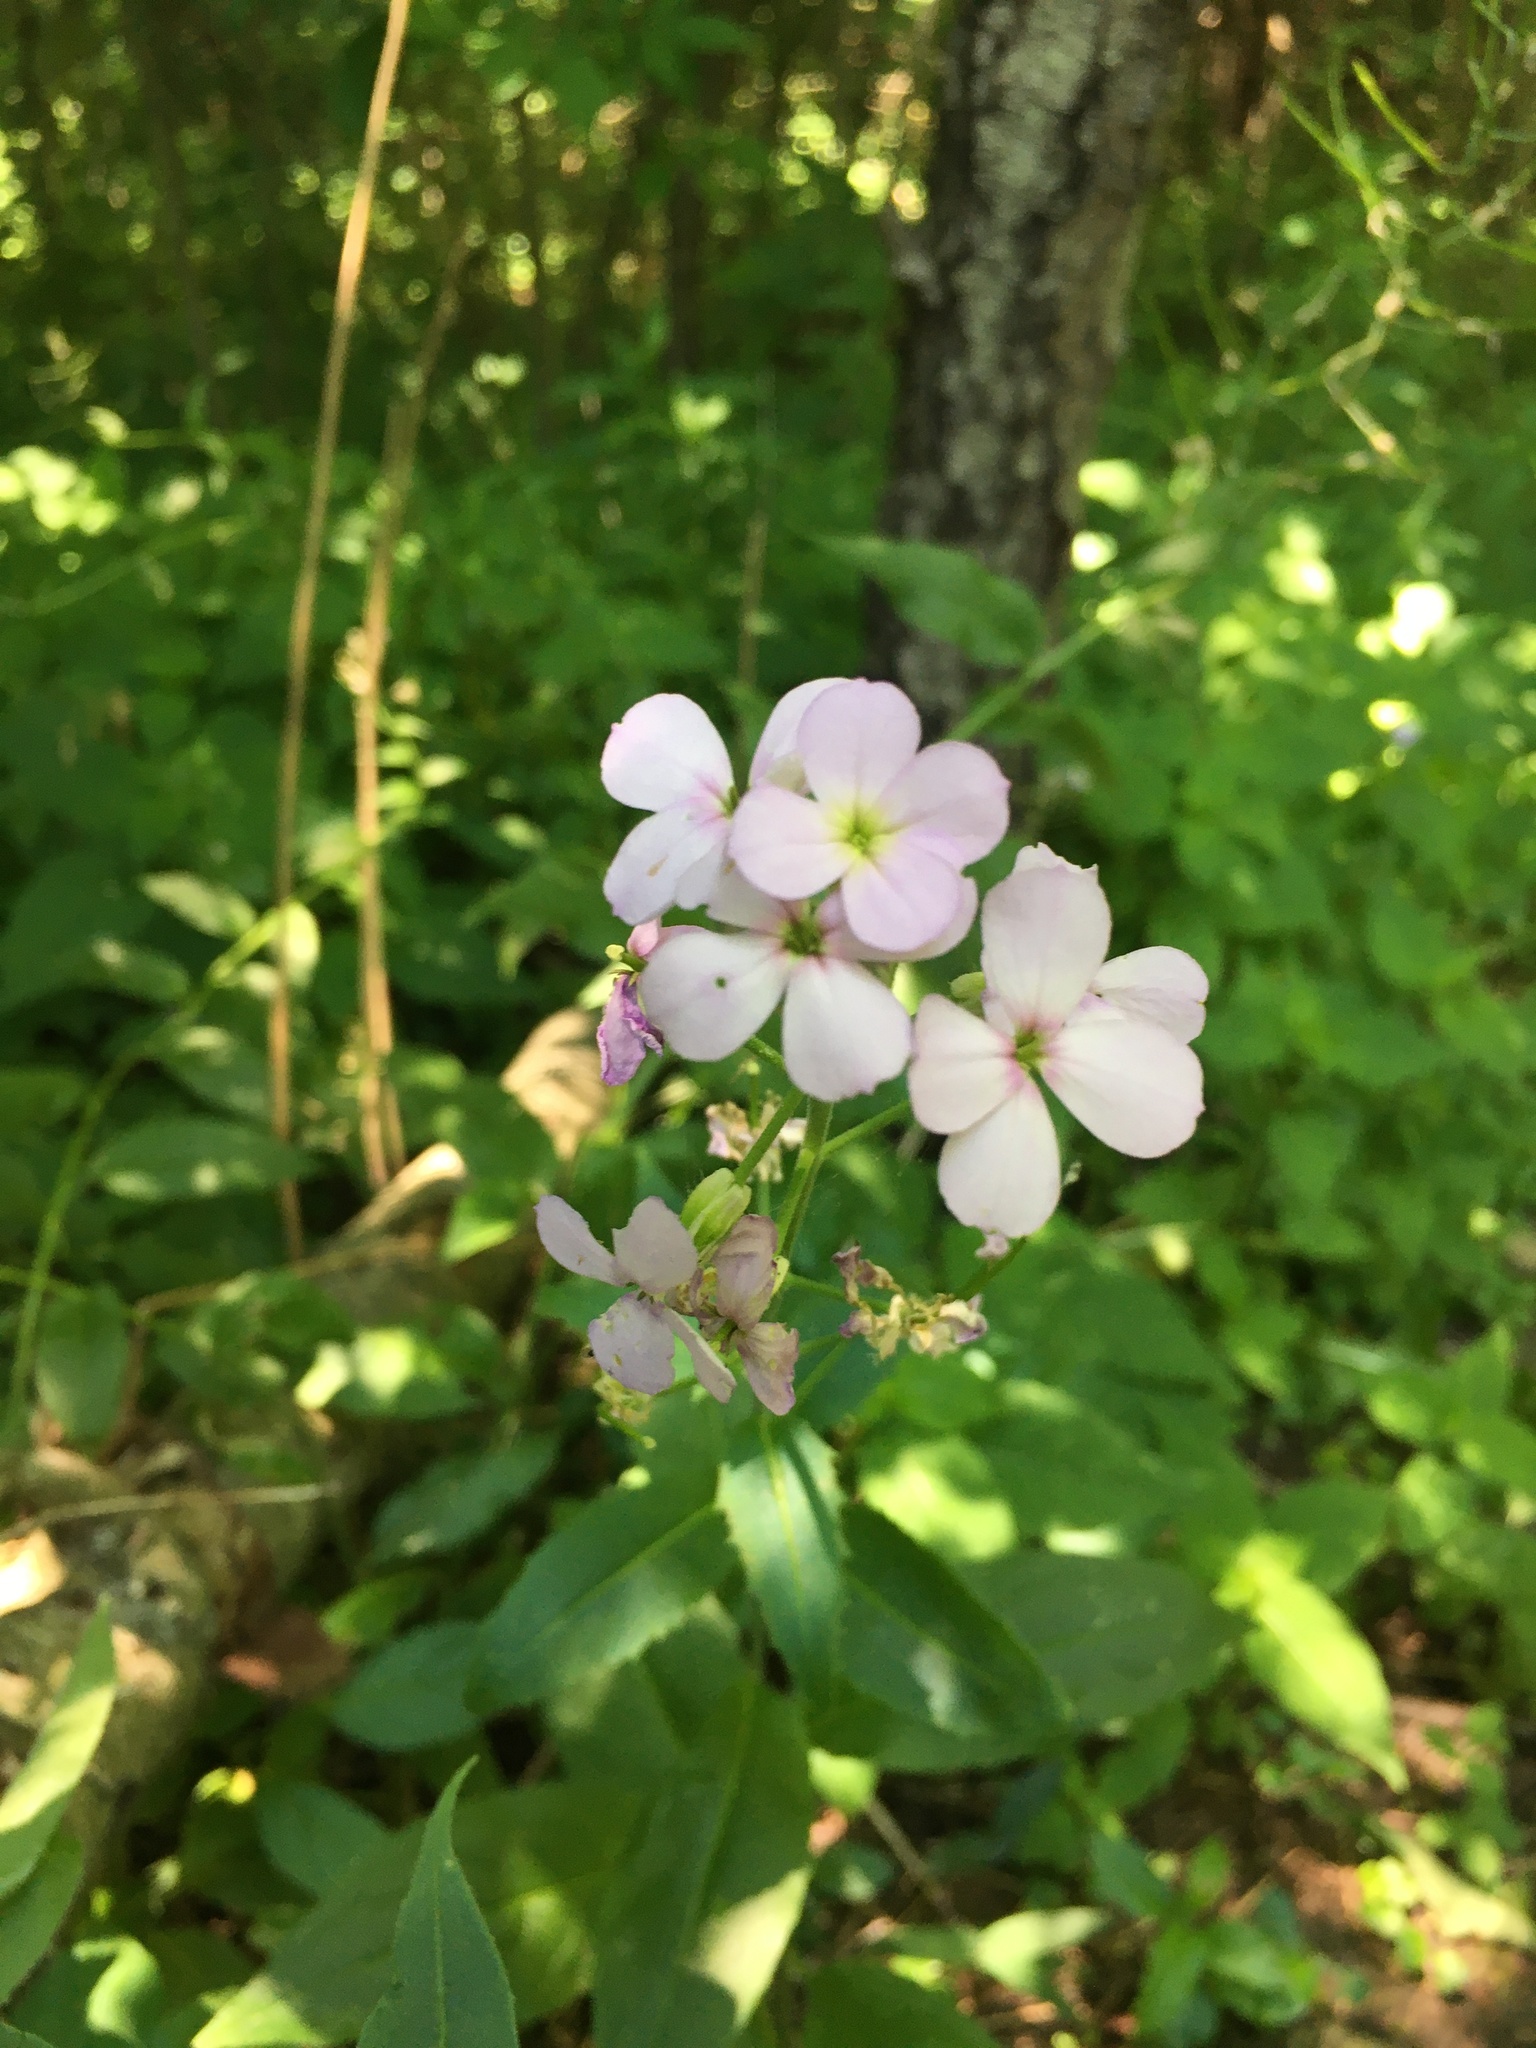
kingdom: Plantae
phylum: Tracheophyta
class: Magnoliopsida
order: Brassicales
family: Brassicaceae
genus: Hesperis
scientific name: Hesperis matronalis
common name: Dame's-violet
